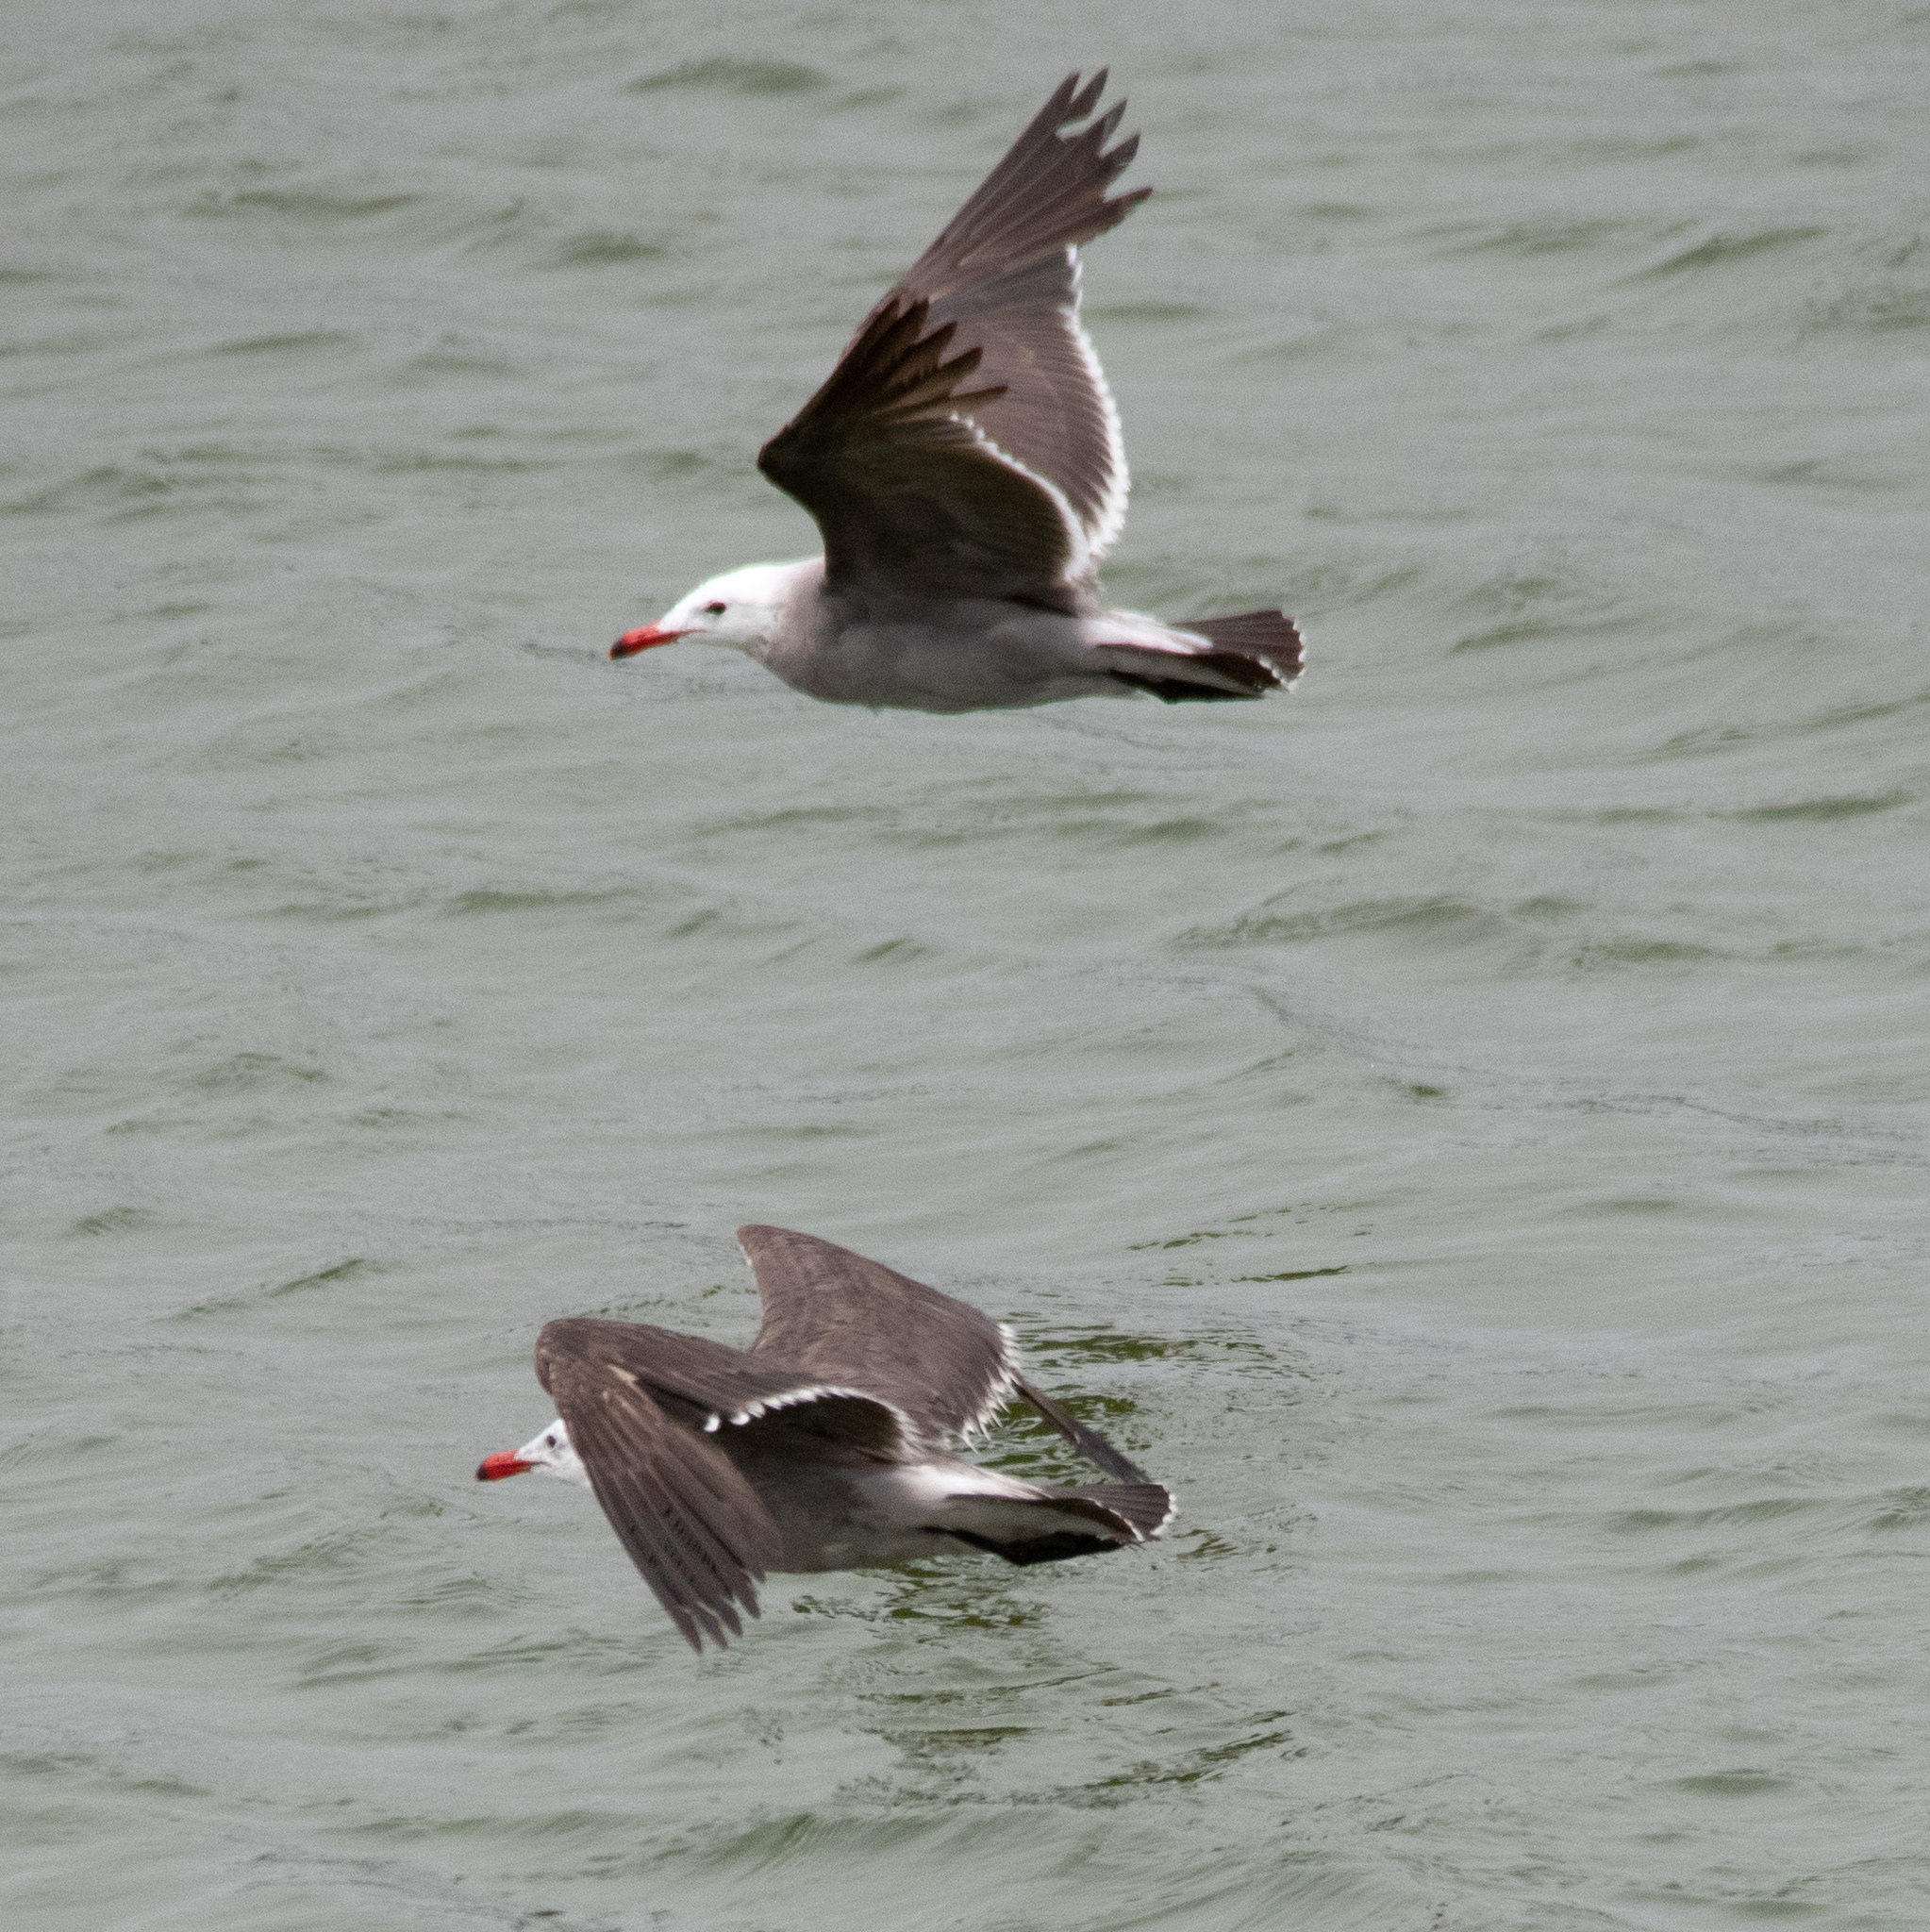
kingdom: Animalia
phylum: Chordata
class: Aves
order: Charadriiformes
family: Laridae
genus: Larus
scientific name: Larus heermanni
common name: Heermann's gull
